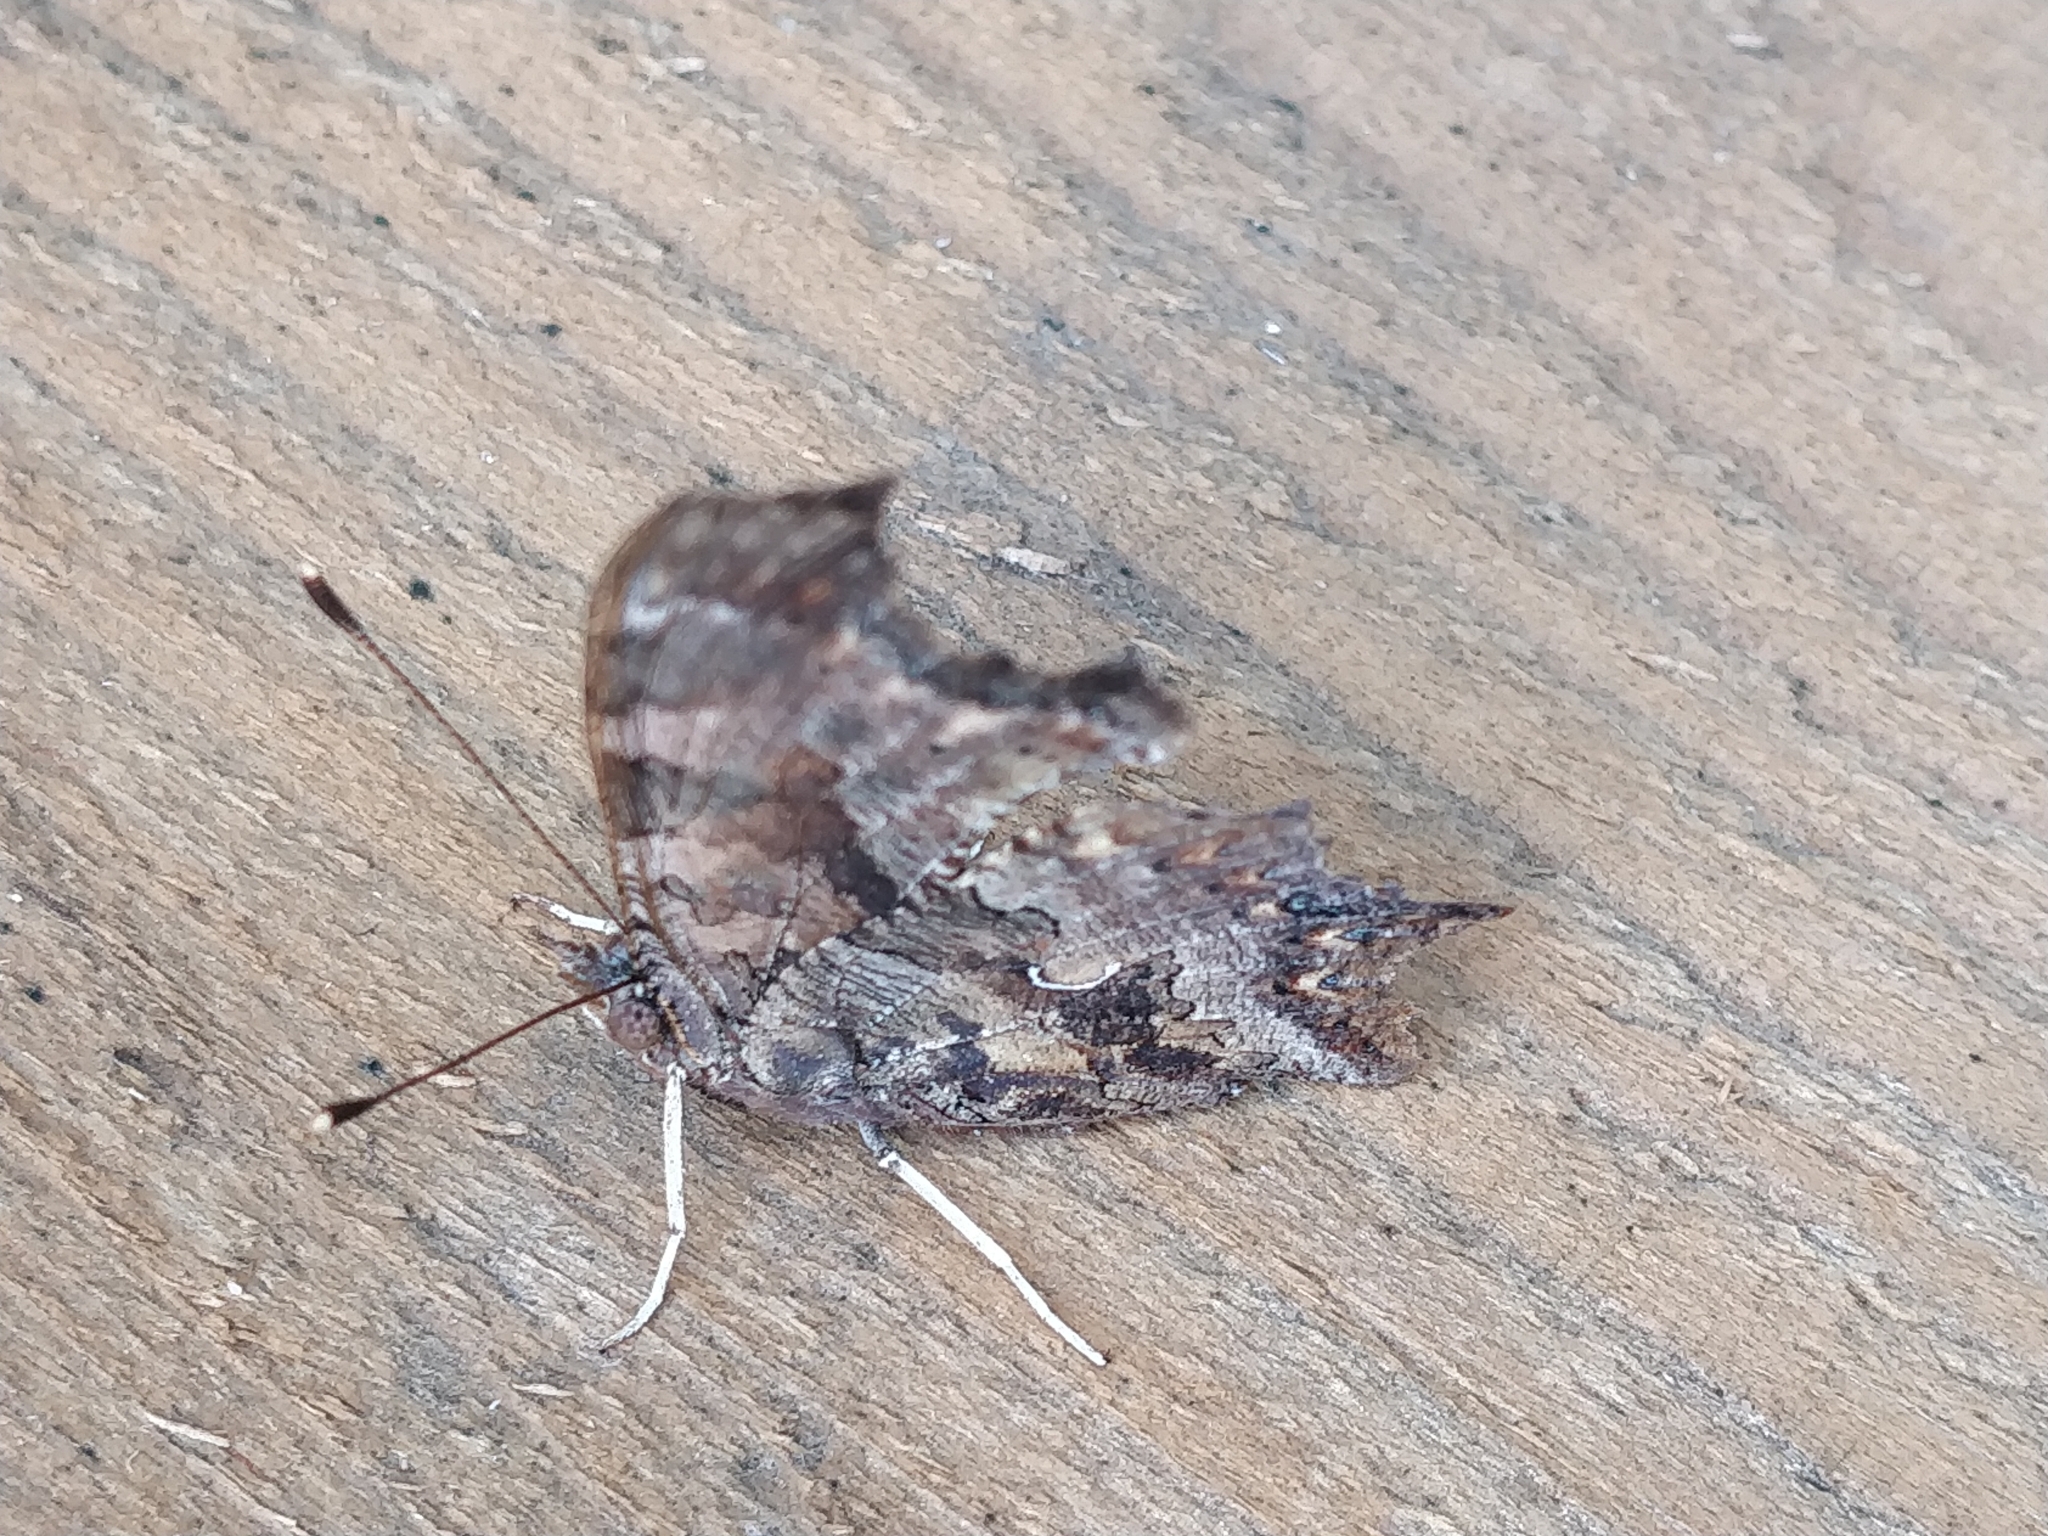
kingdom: Animalia
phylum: Arthropoda
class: Insecta
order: Lepidoptera
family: Nymphalidae
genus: Polygonia
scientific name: Polygonia comma
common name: Eastern comma
